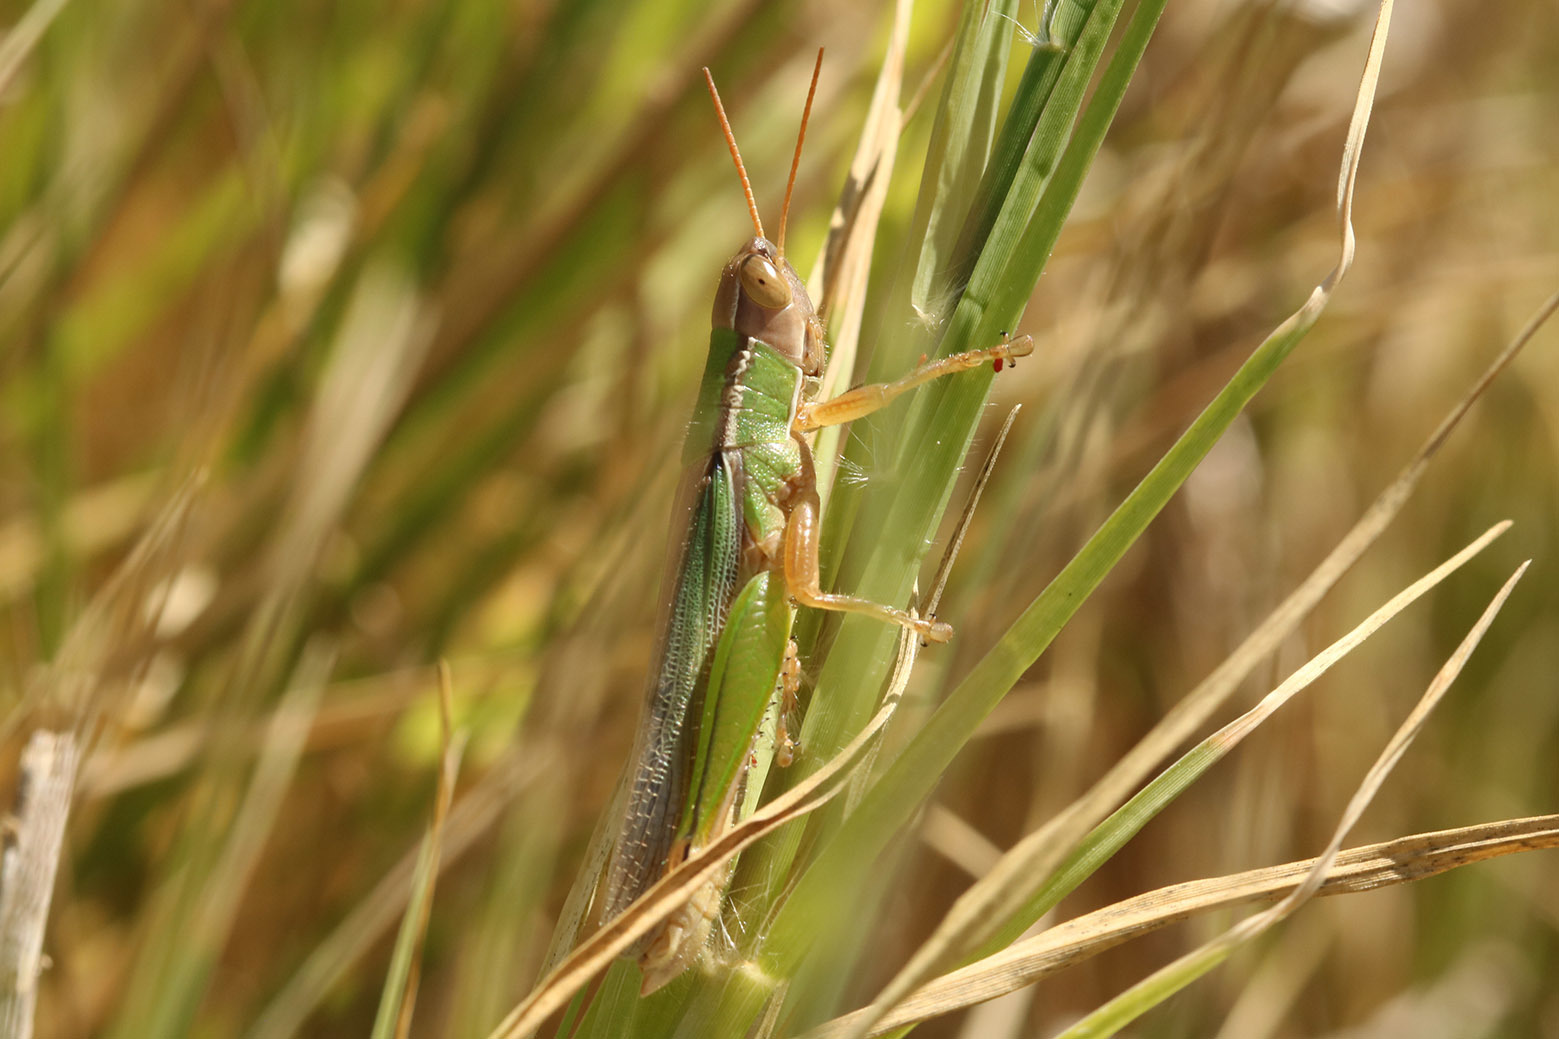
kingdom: Animalia
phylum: Arthropoda
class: Insecta
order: Orthoptera
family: Acrididae
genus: Aleuas
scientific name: Aleuas lineatus
